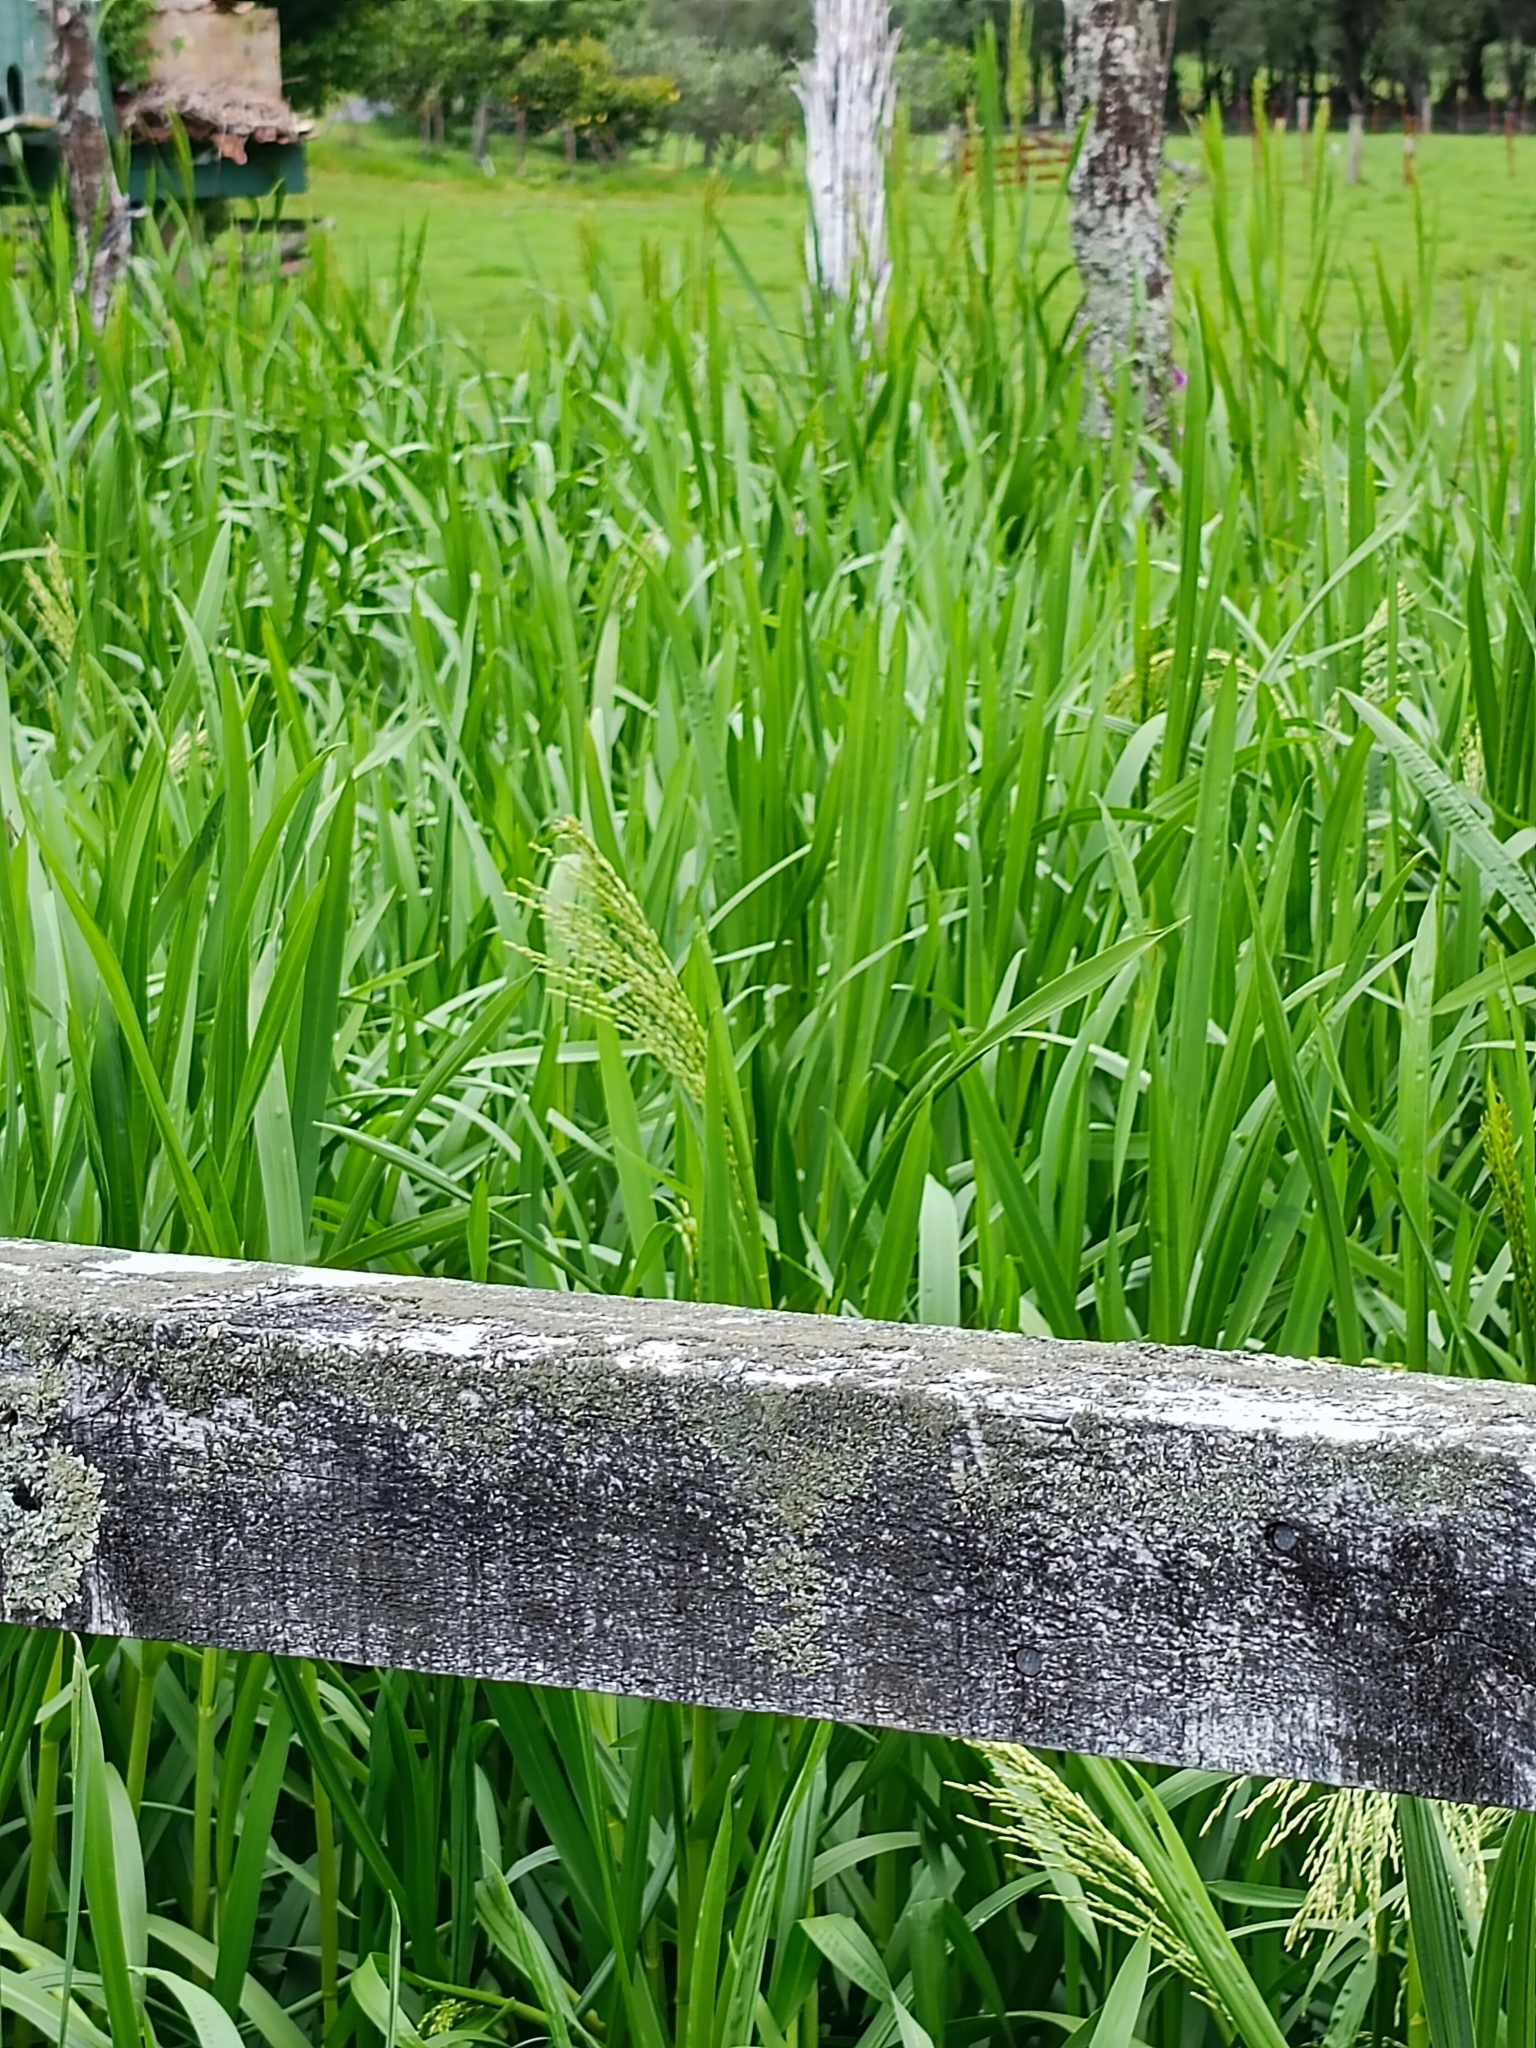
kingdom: Plantae
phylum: Tracheophyta
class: Liliopsida
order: Poales
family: Poaceae
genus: Glyceria
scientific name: Glyceria maxima
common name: Reed mannagrass
